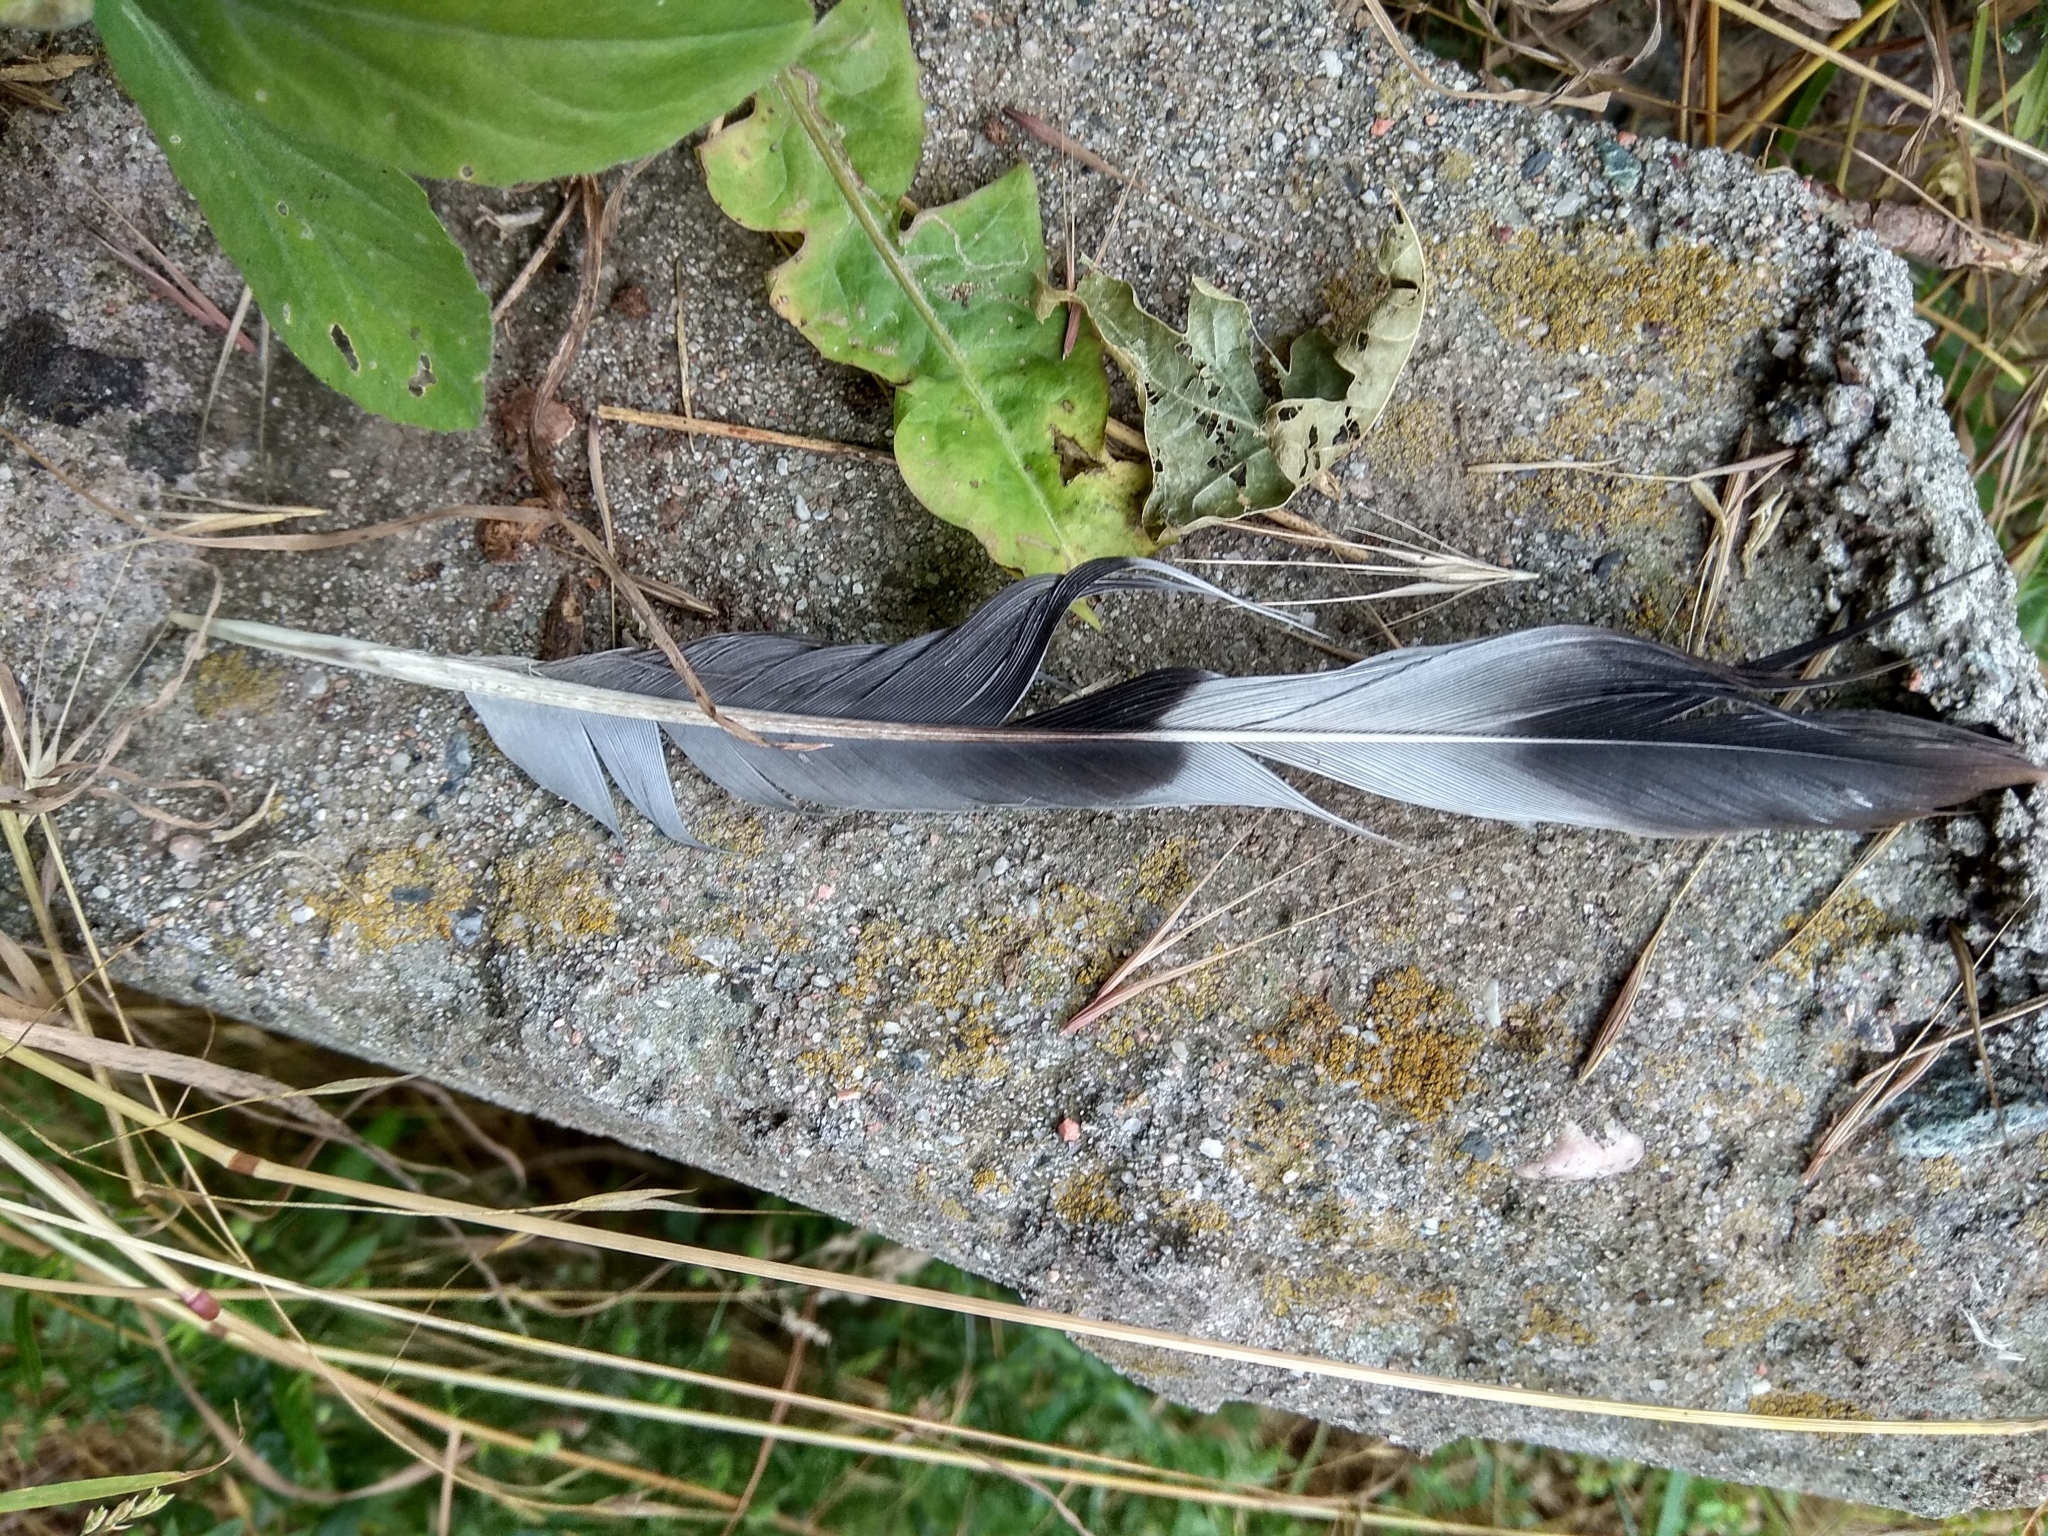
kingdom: Animalia
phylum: Chordata
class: Aves
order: Columbiformes
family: Columbidae
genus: Columba
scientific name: Columba palumbus
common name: Common wood pigeon
